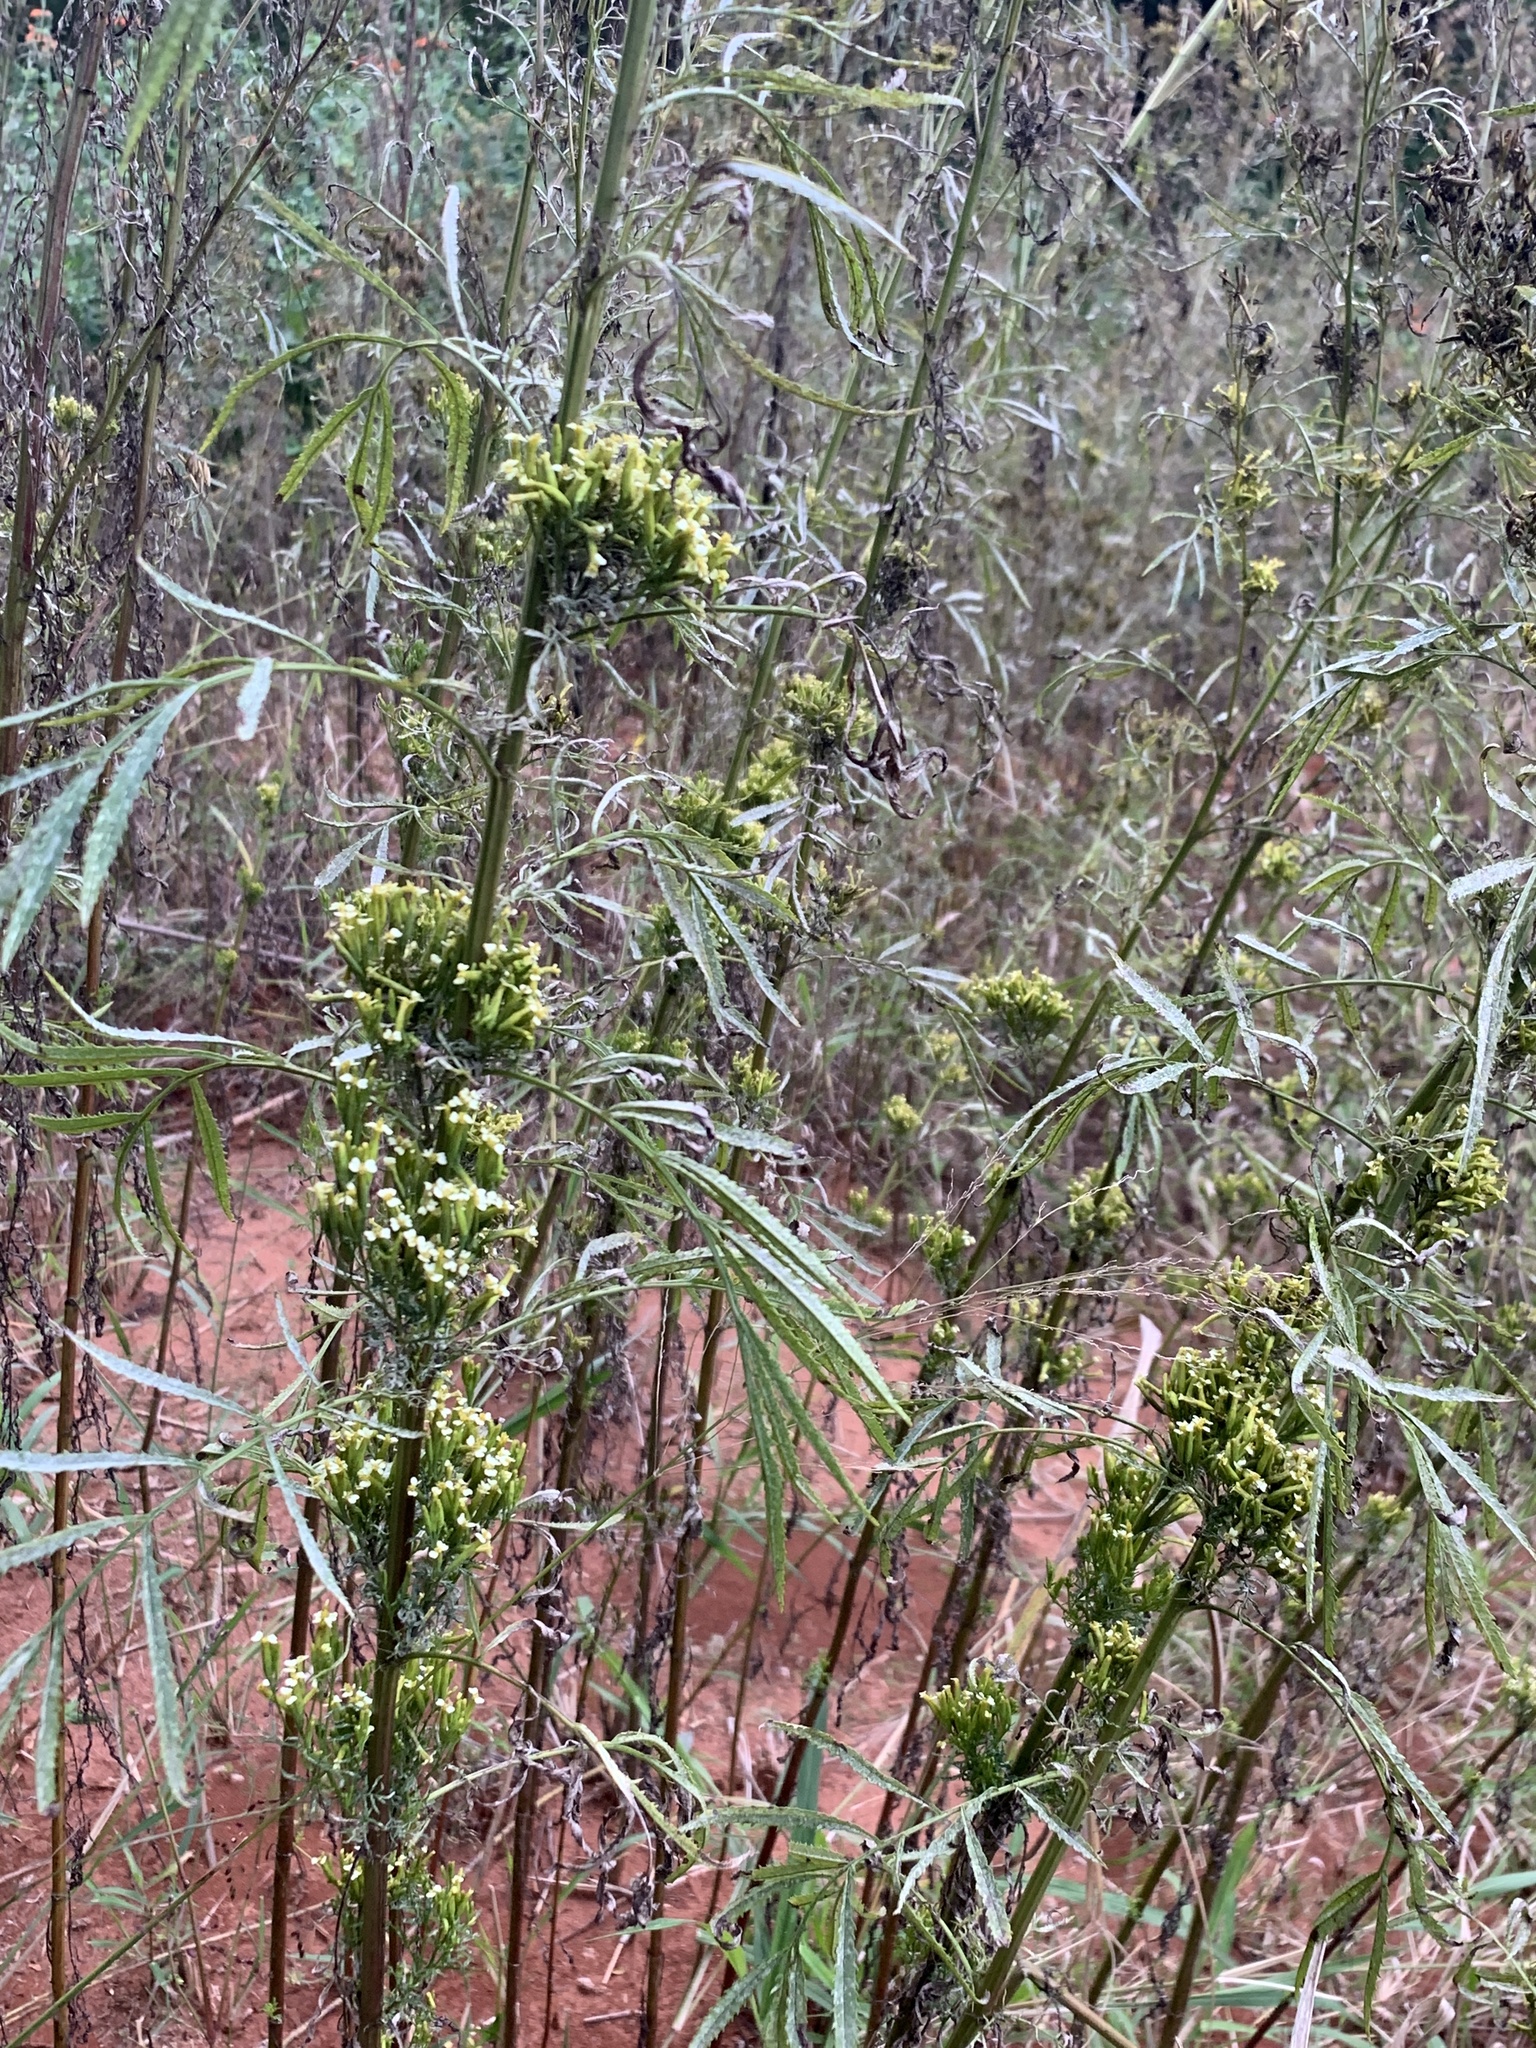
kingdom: Plantae
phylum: Tracheophyta
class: Magnoliopsida
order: Asterales
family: Asteraceae
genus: Tagetes
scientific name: Tagetes minuta
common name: Muster john henry
